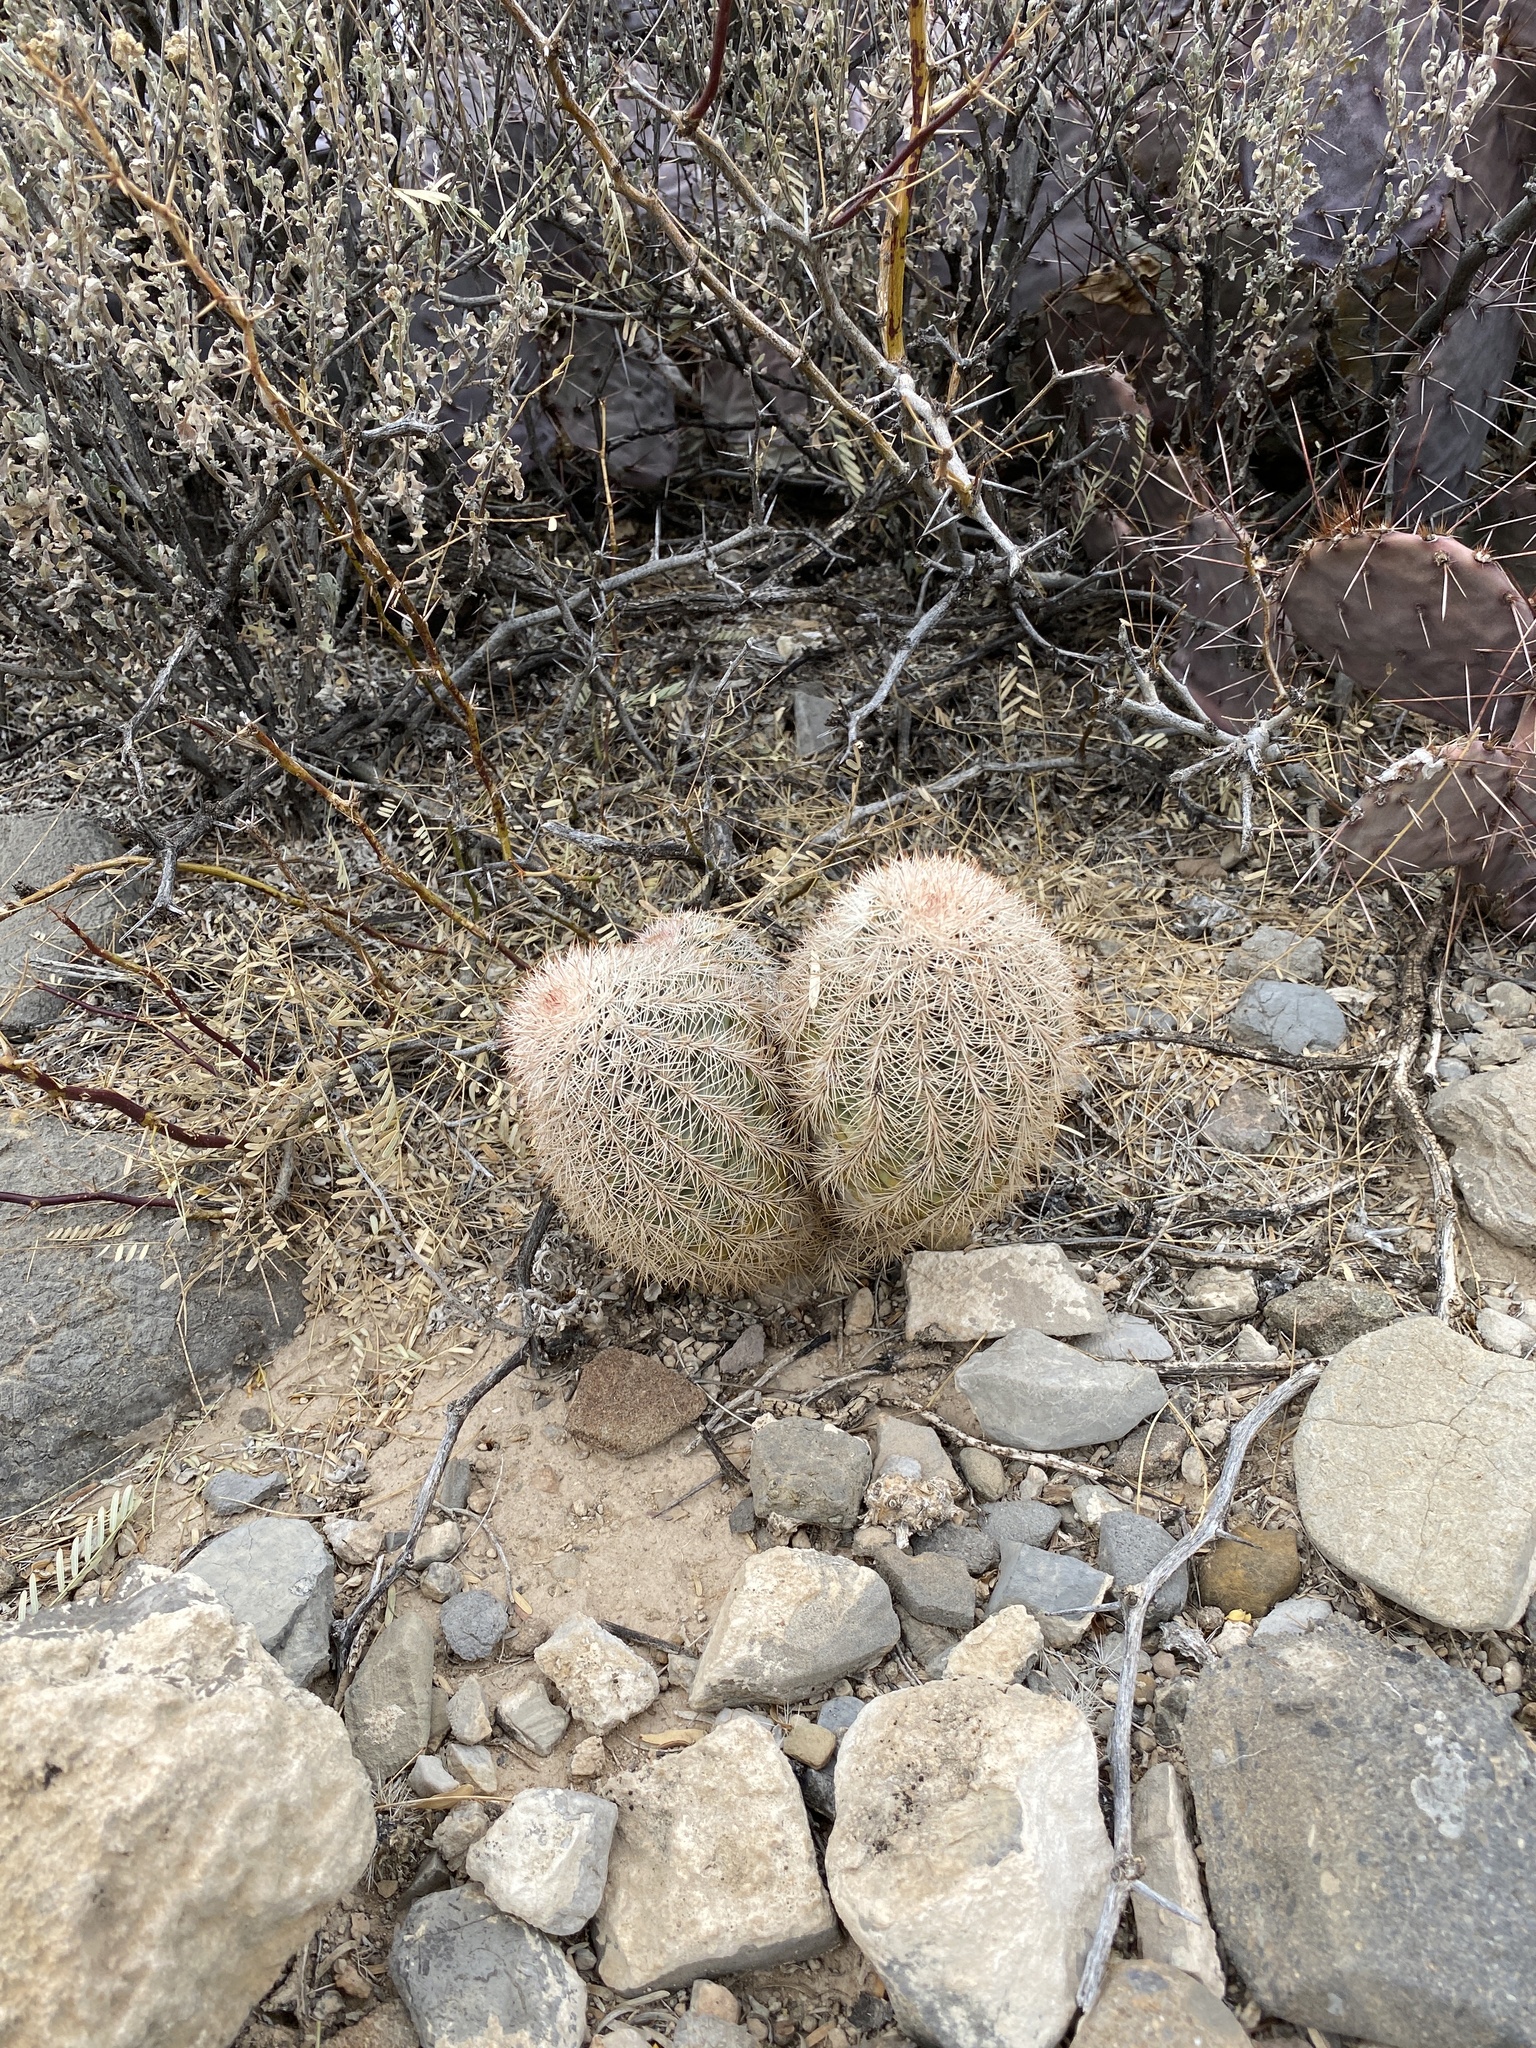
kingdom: Plantae
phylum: Tracheophyta
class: Magnoliopsida
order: Caryophyllales
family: Cactaceae
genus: Echinocereus
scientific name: Echinocereus dasyacanthus
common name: Spiny hedgehog cactus
